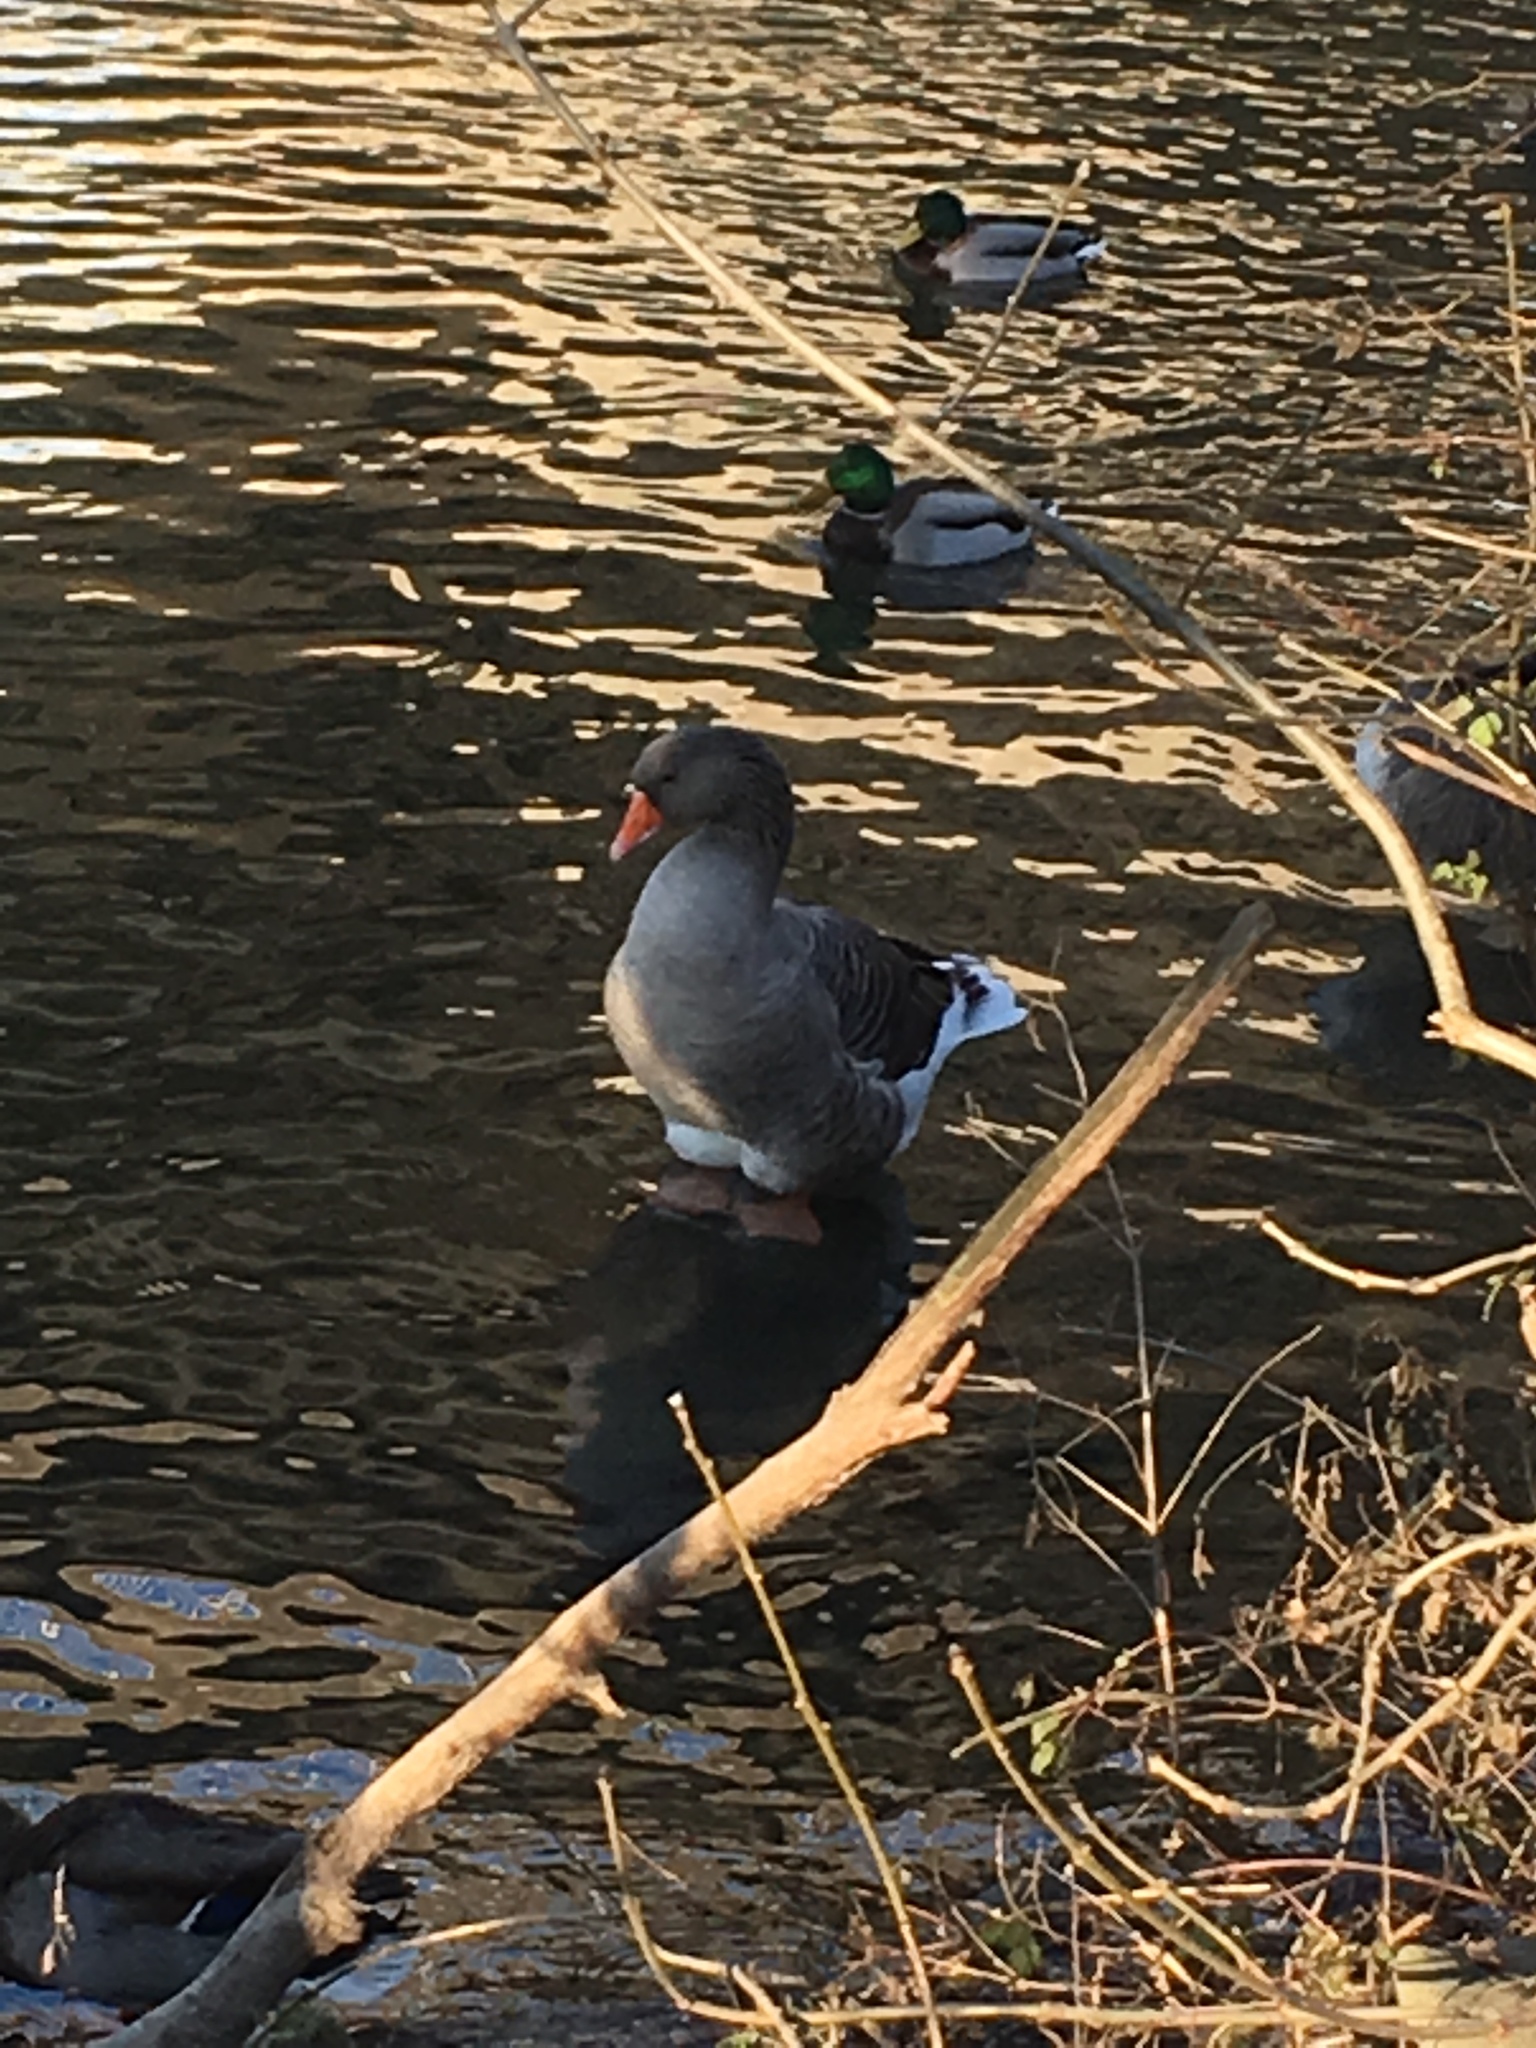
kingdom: Animalia
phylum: Chordata
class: Aves
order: Anseriformes
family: Anatidae
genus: Anser
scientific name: Anser anser
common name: Greylag goose
